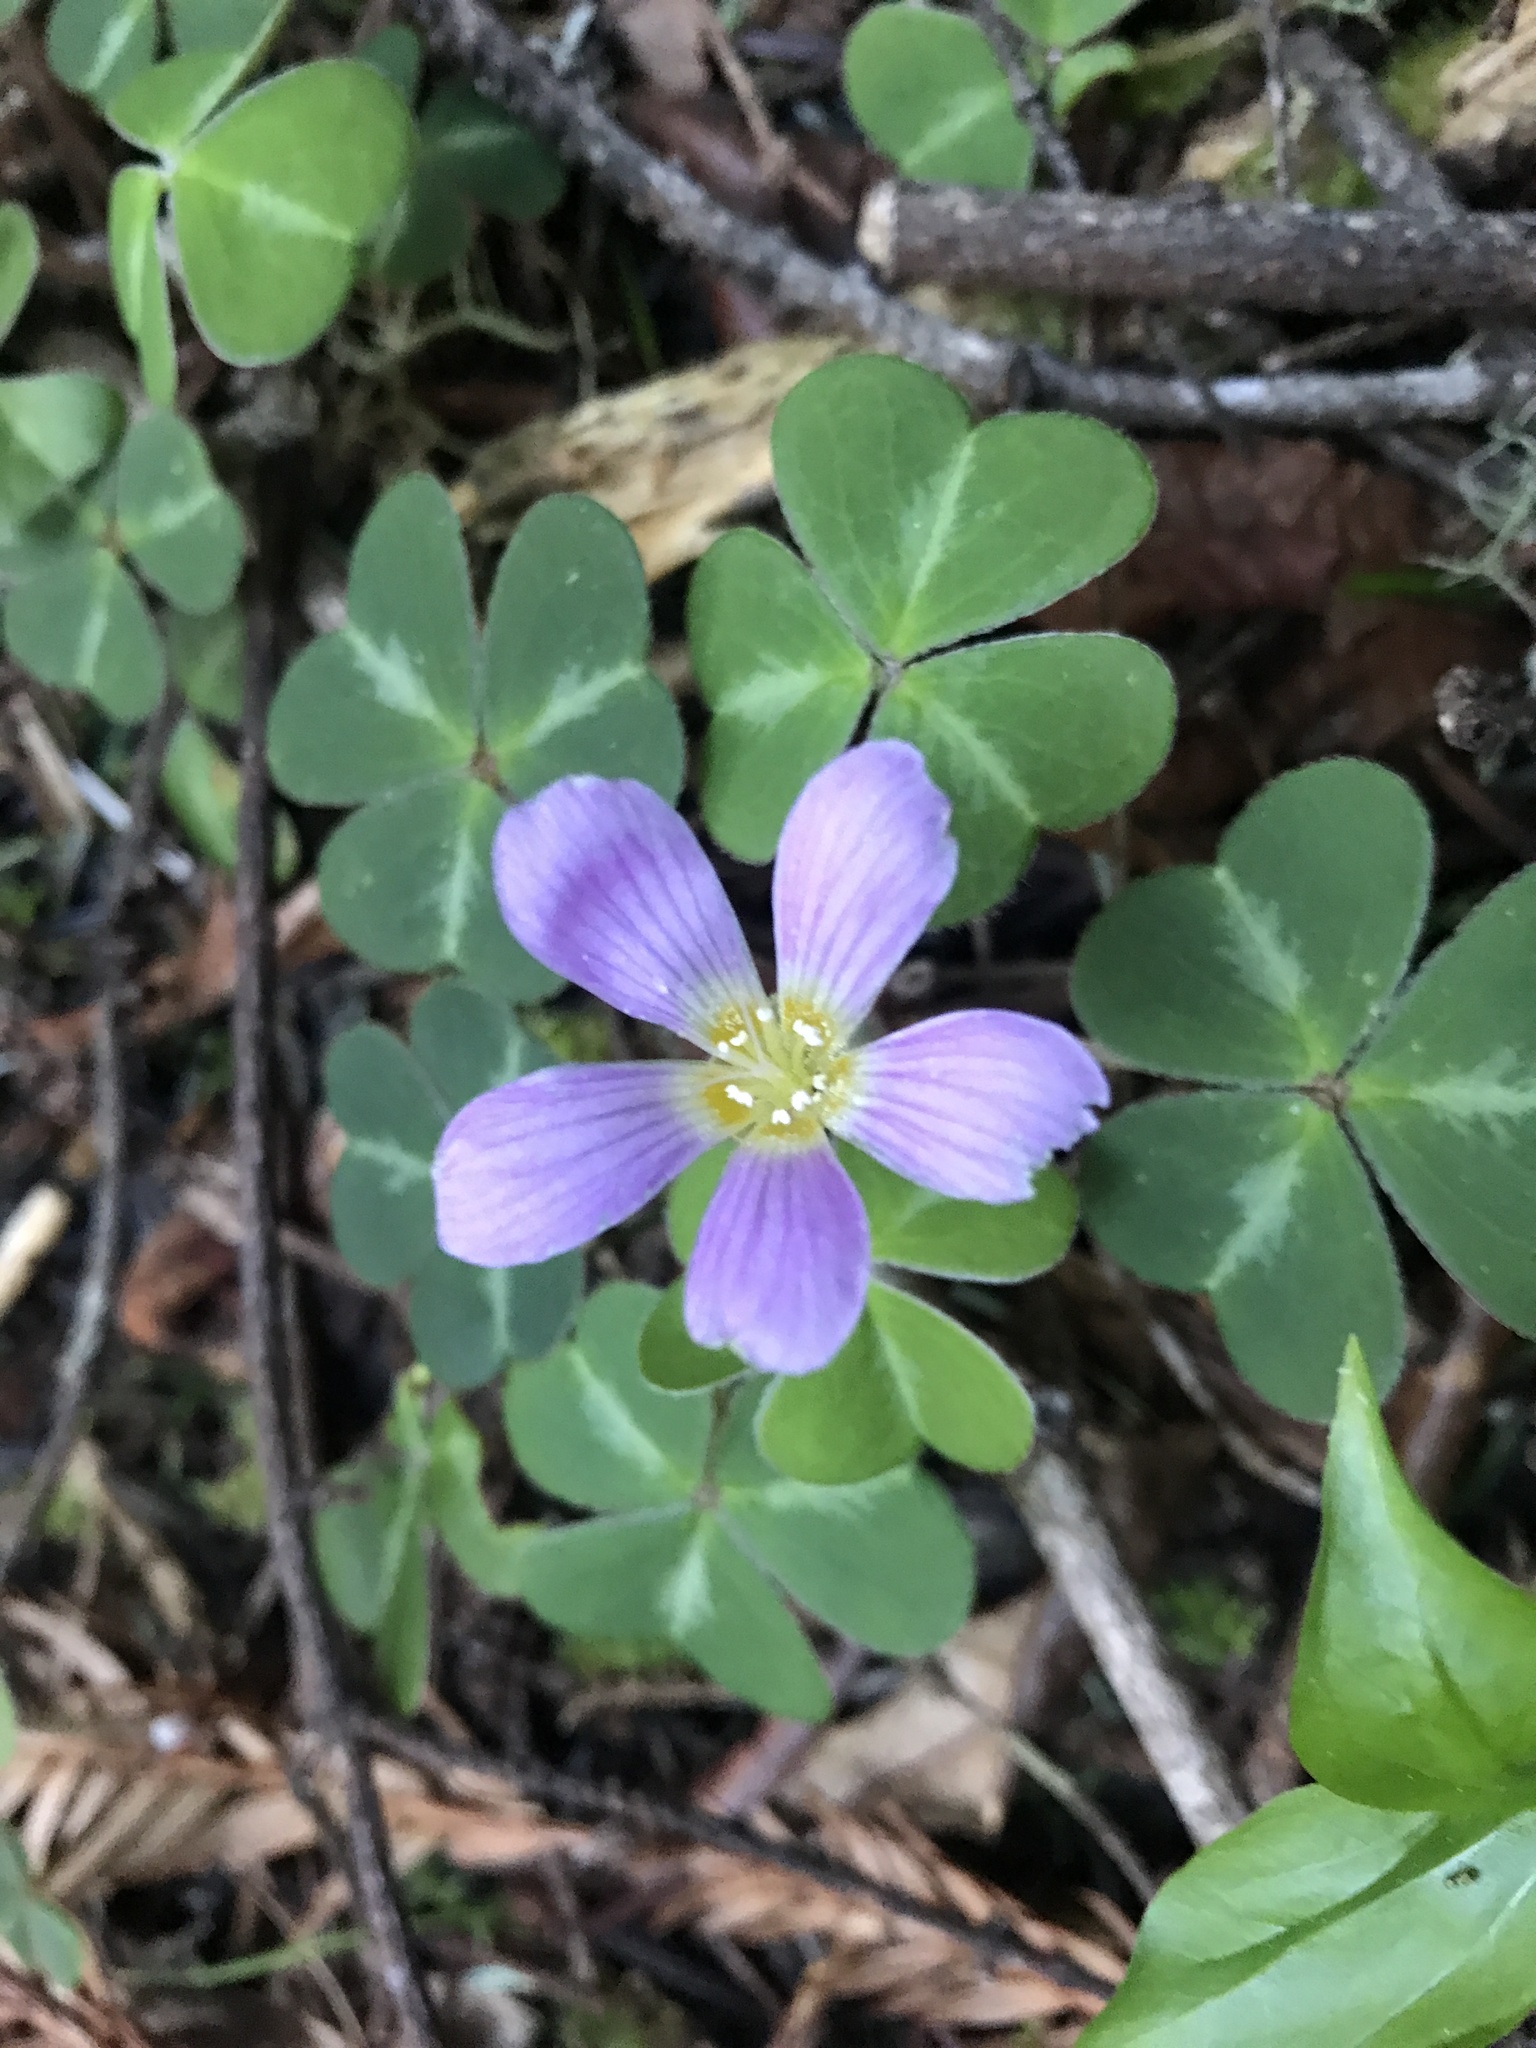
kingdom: Plantae
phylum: Tracheophyta
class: Magnoliopsida
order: Oxalidales
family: Oxalidaceae
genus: Oxalis
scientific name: Oxalis oregana
